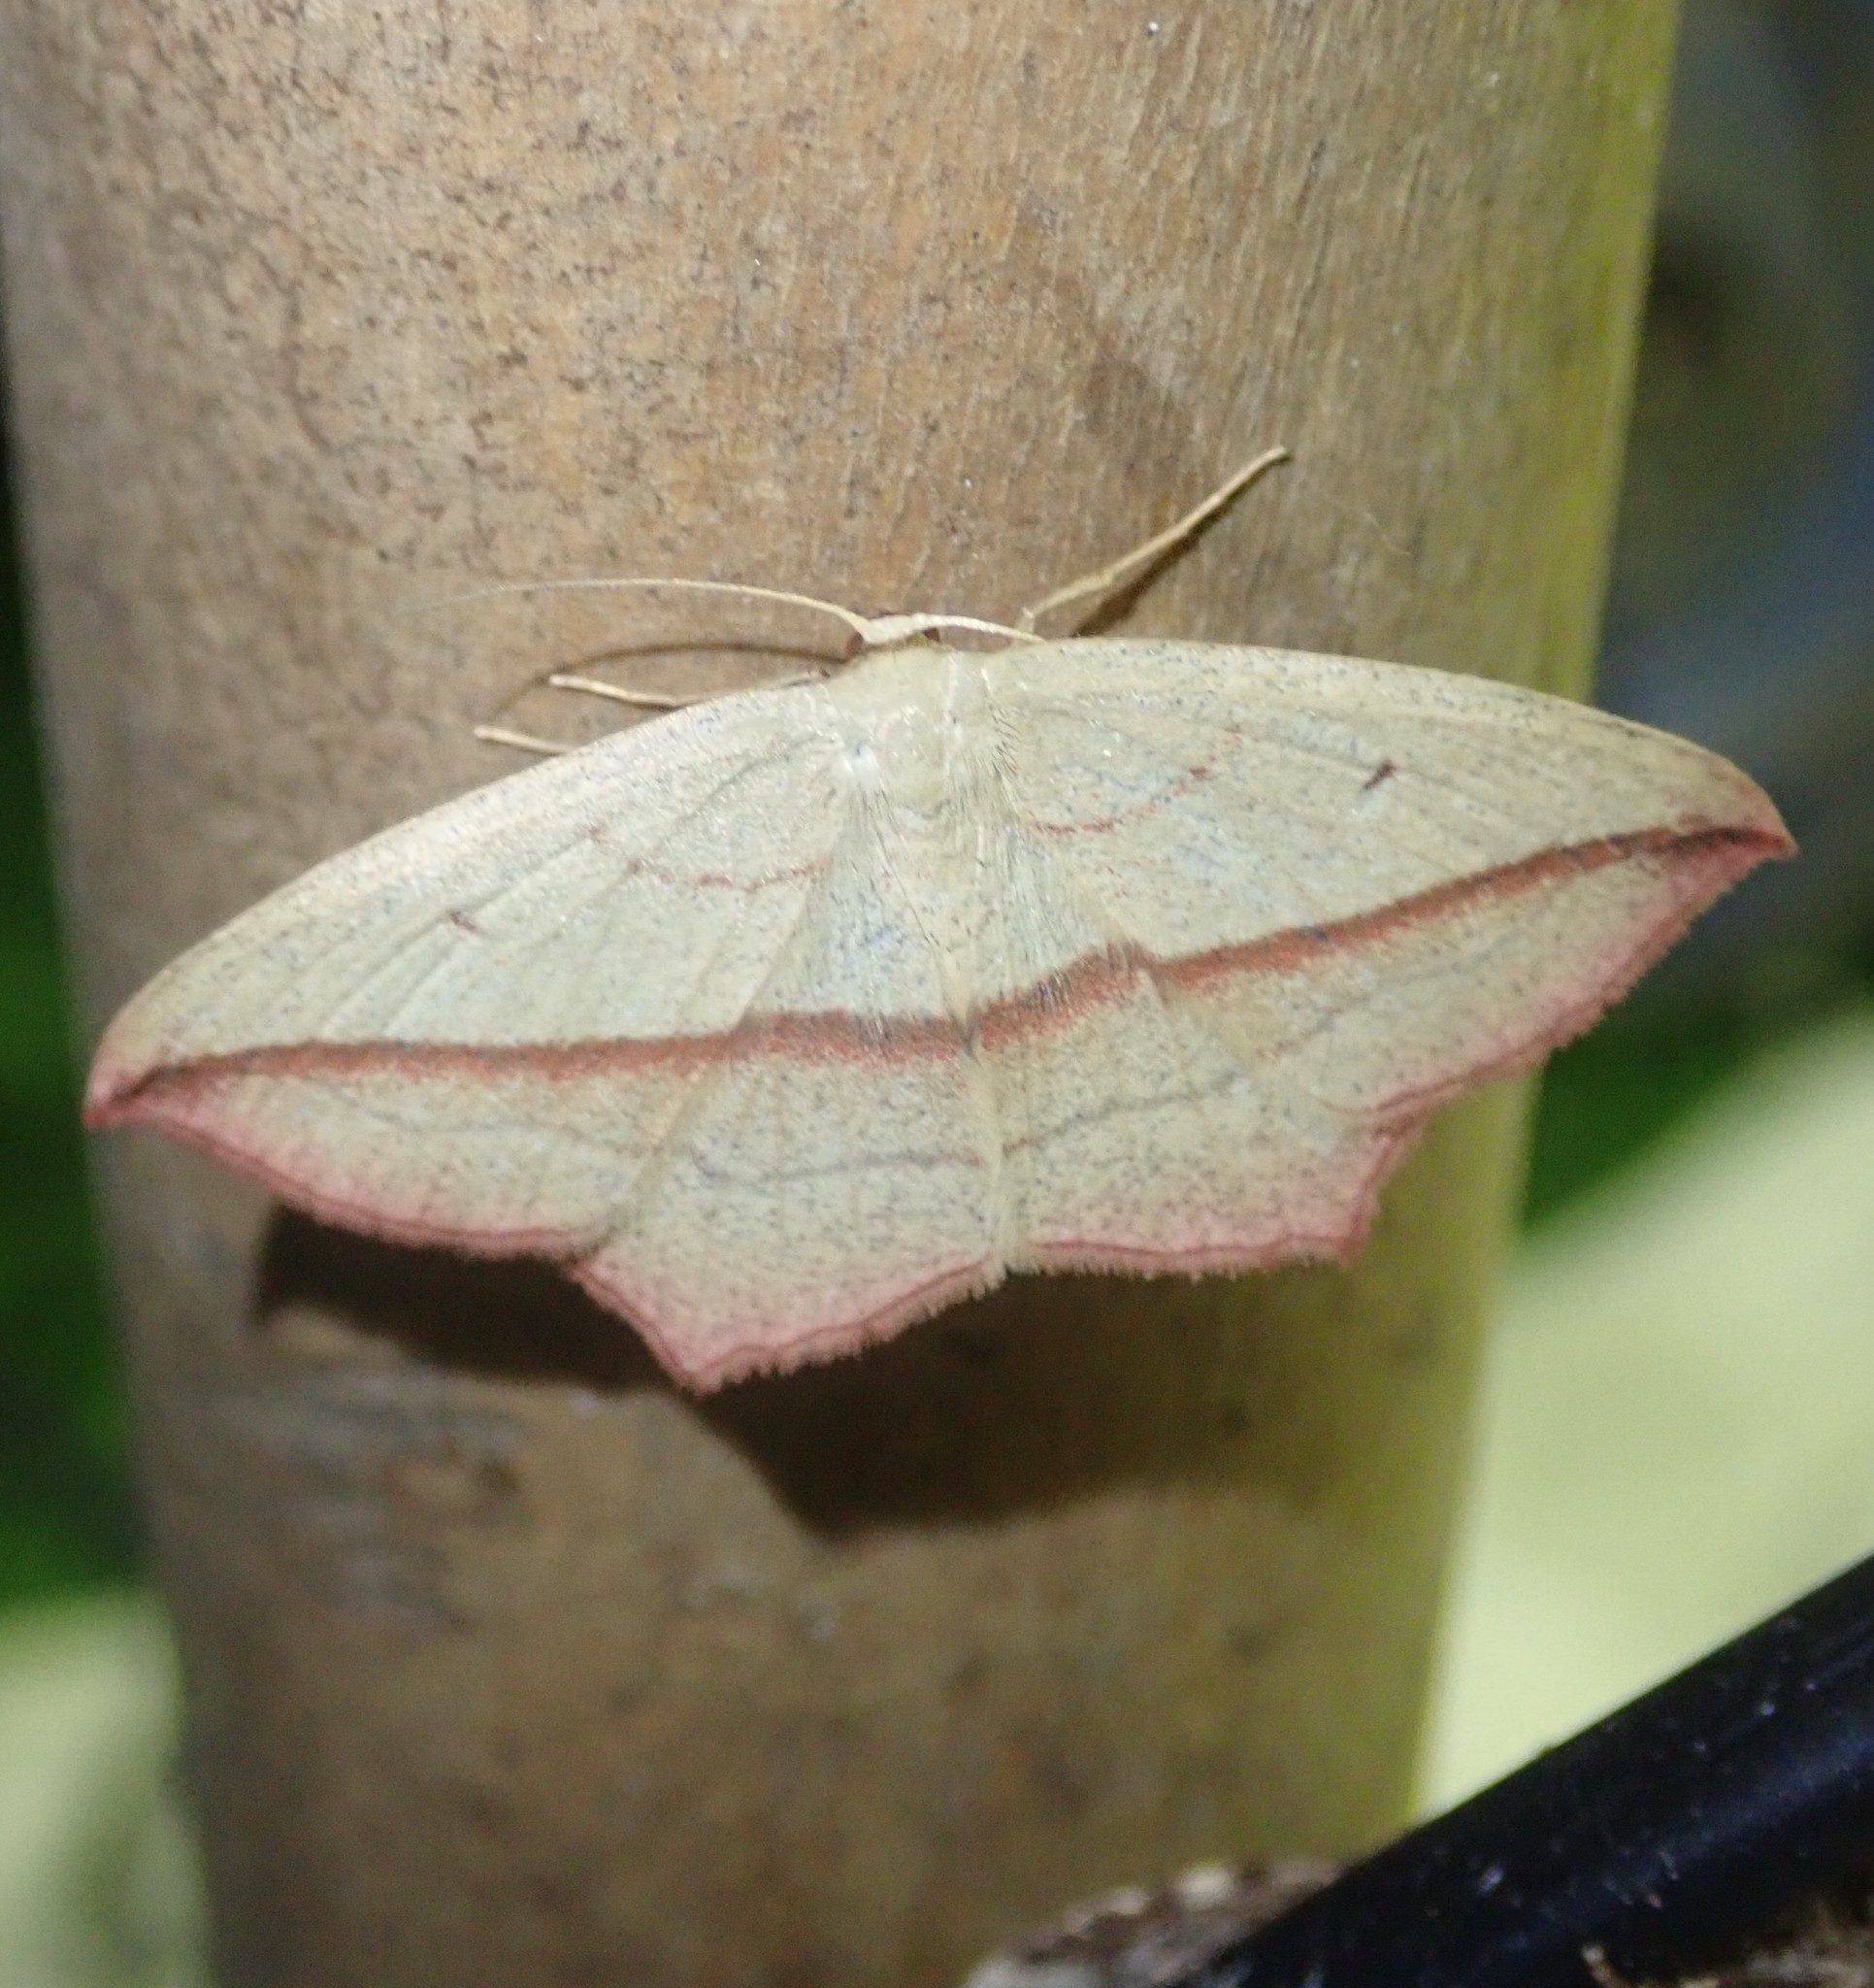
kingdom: Animalia
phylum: Arthropoda
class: Insecta
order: Lepidoptera
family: Geometridae
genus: Timandra
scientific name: Timandra comae
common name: Blood-vein
